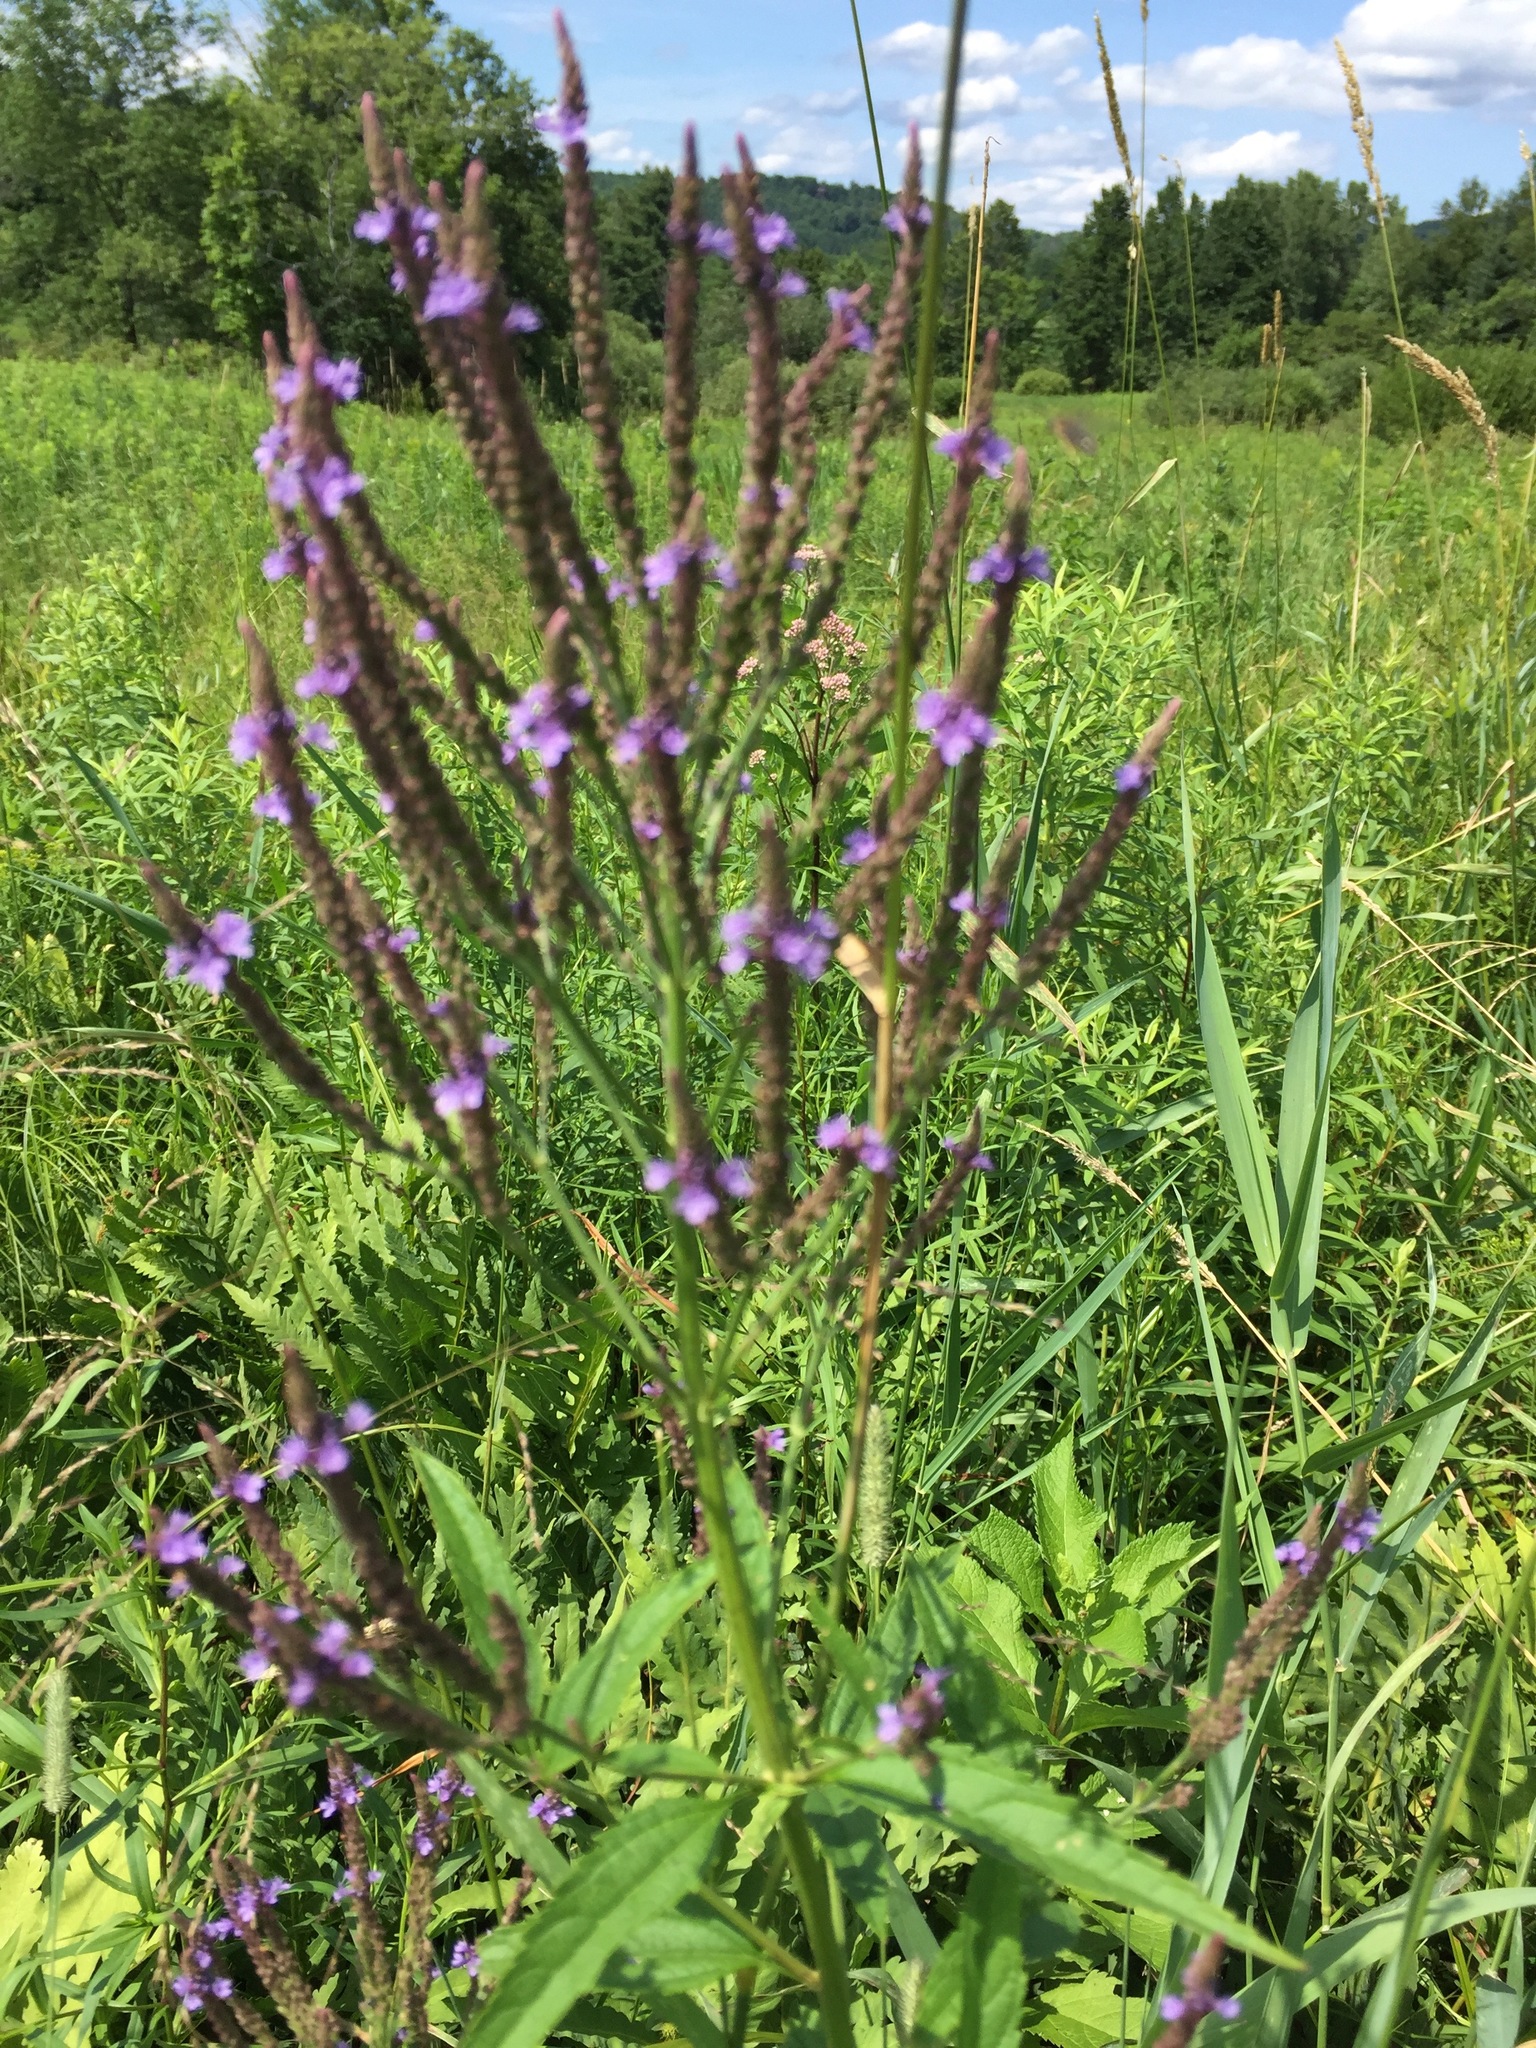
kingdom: Plantae
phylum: Tracheophyta
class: Magnoliopsida
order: Lamiales
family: Verbenaceae
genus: Verbena
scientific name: Verbena hastata
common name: American blue vervain
